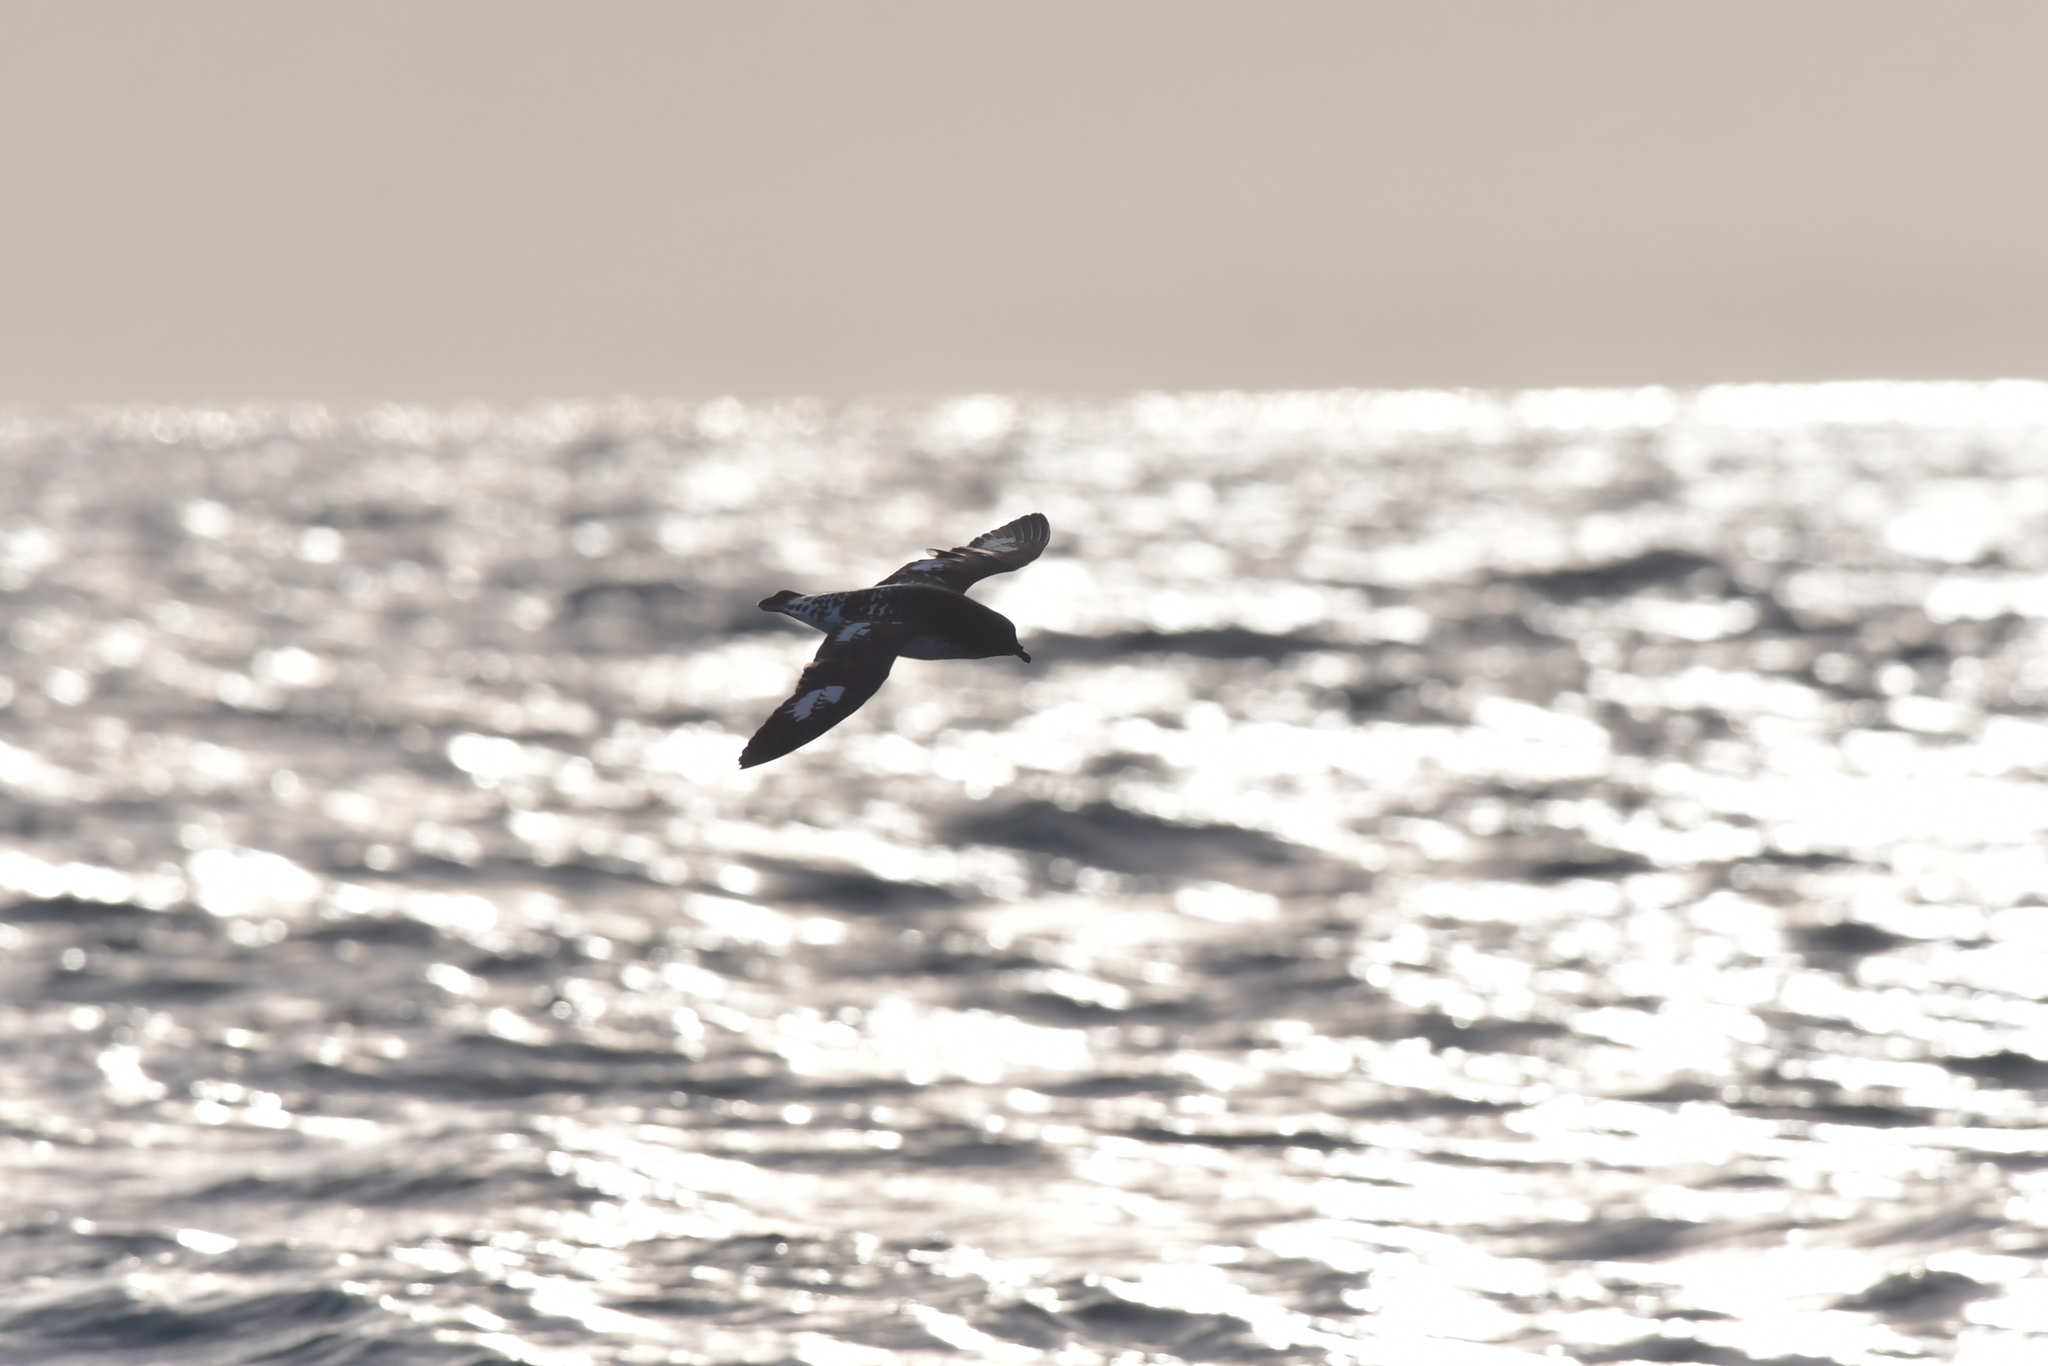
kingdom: Animalia
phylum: Chordata
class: Aves
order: Procellariiformes
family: Procellariidae
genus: Daption
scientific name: Daption capense
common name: Cape petrel
